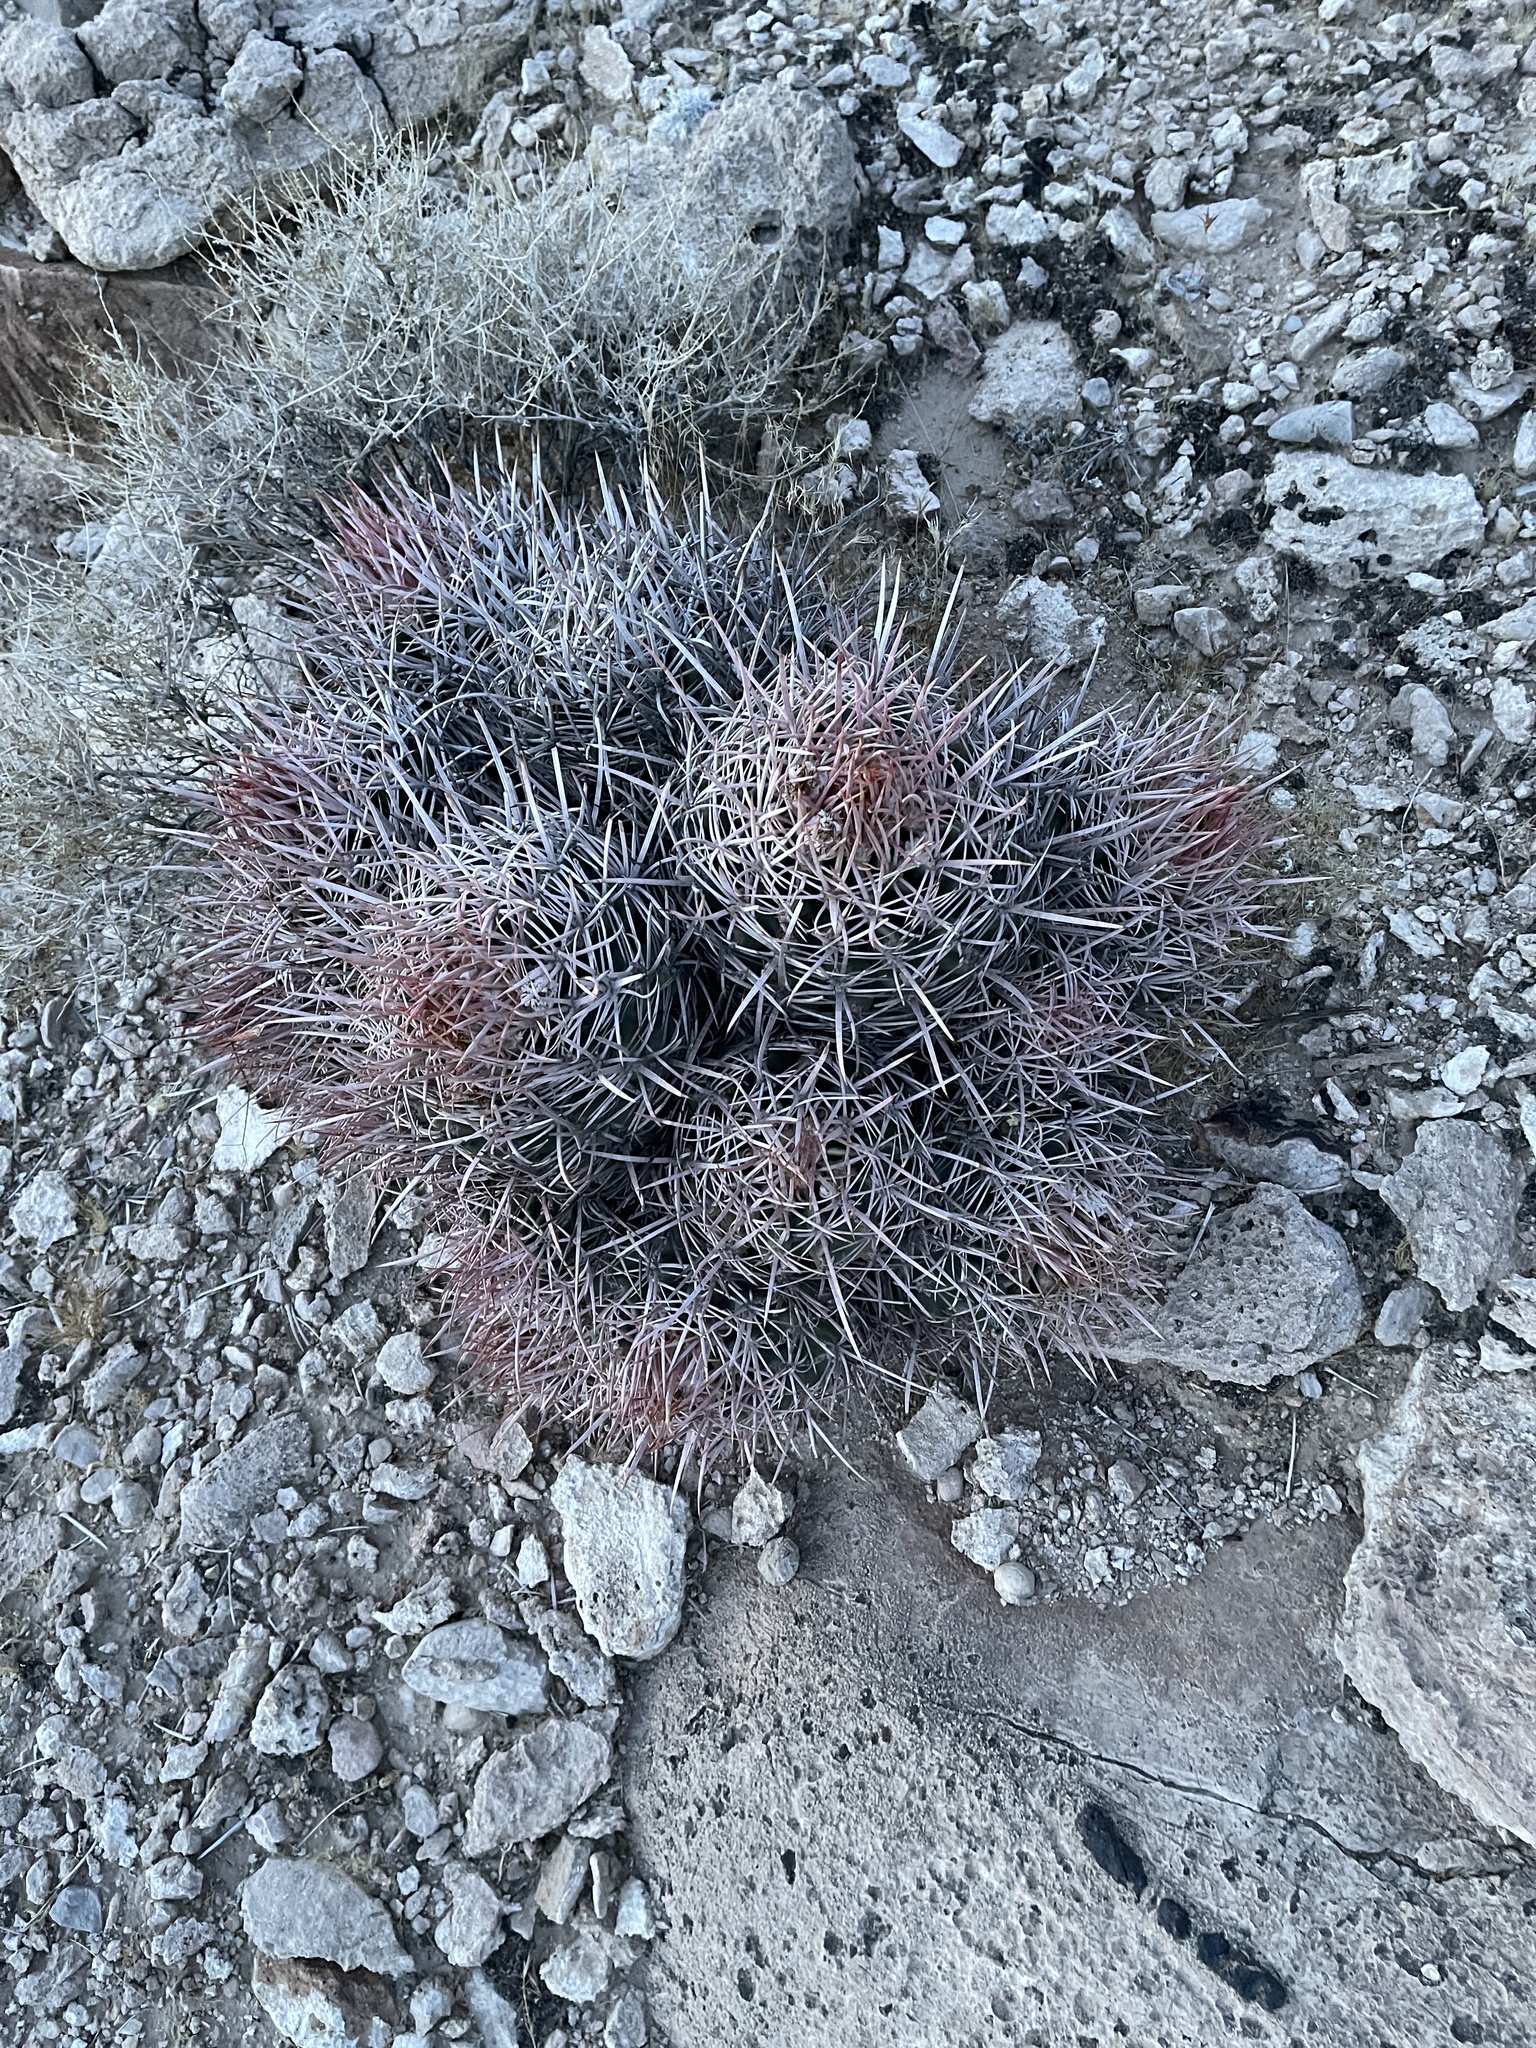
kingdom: Plantae
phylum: Tracheophyta
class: Magnoliopsida
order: Caryophyllales
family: Cactaceae
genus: Echinocactus
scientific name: Echinocactus polycephalus
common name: Cottontop cactus
